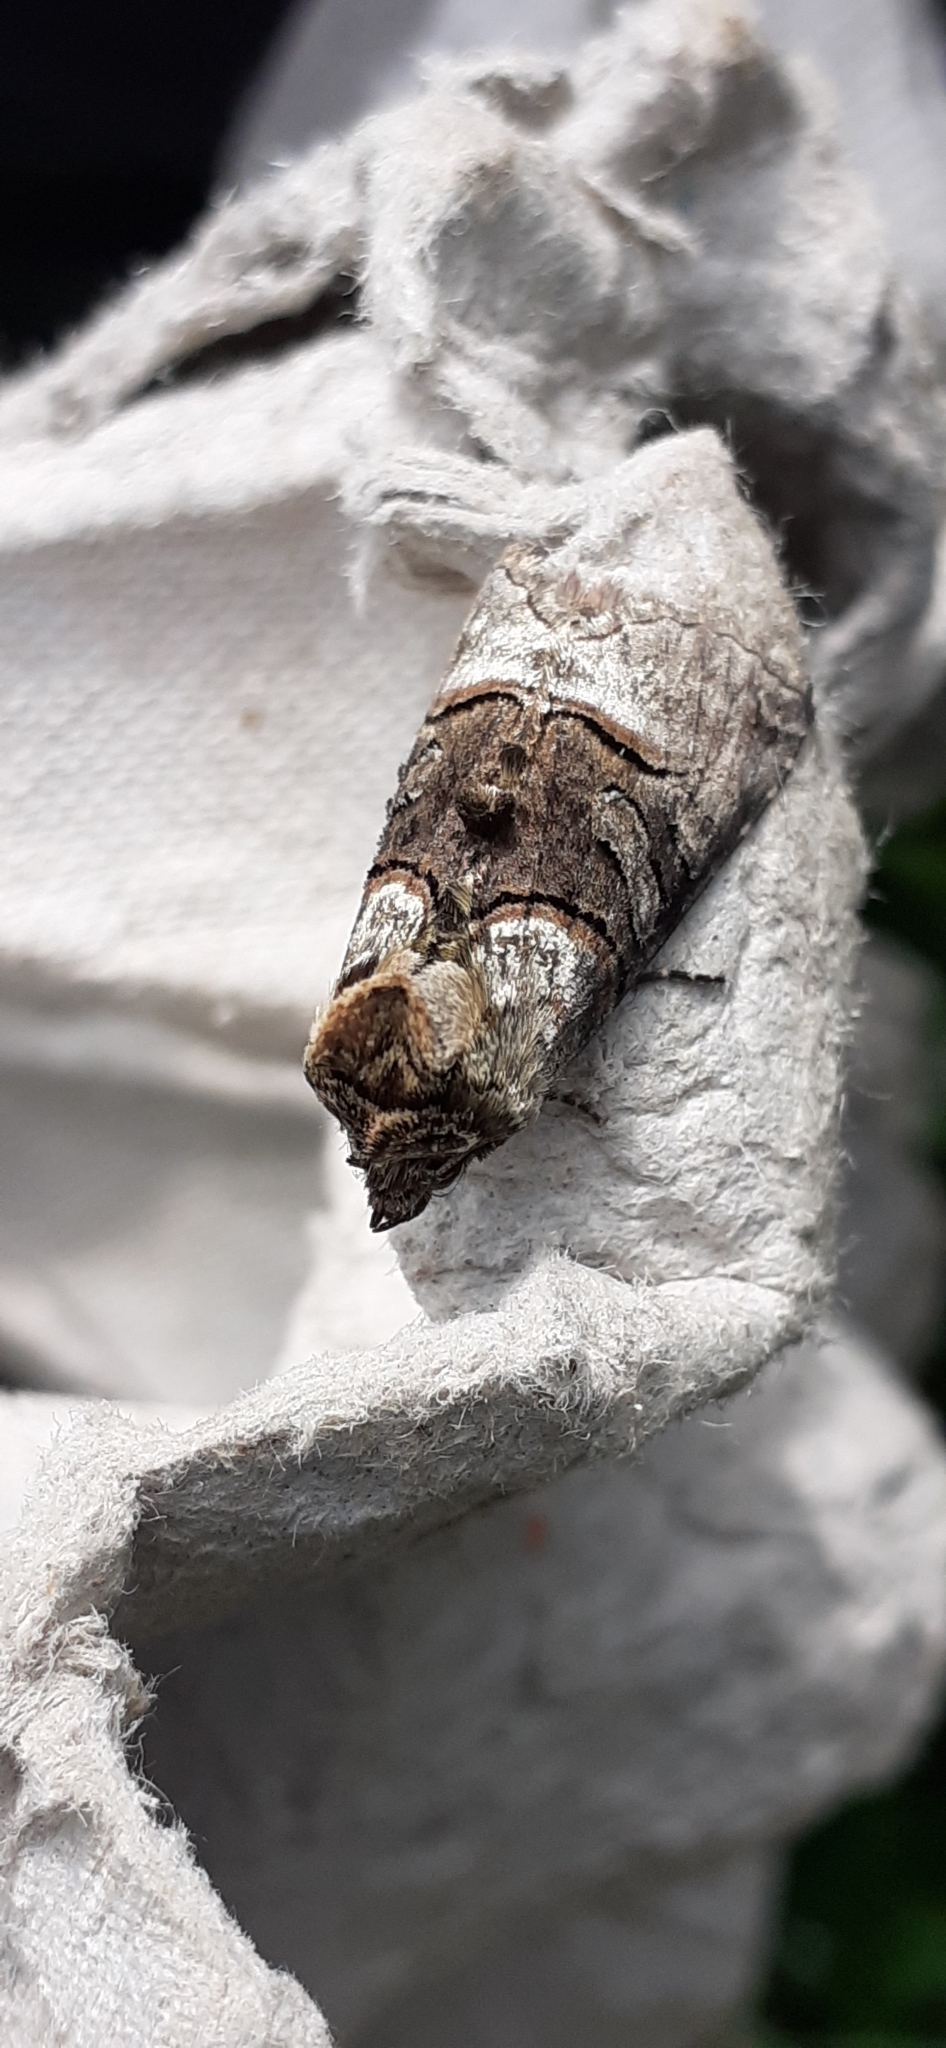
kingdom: Animalia
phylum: Arthropoda
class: Insecta
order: Lepidoptera
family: Noctuidae
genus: Abrostola
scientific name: Abrostola tripartita
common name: Spectacle
